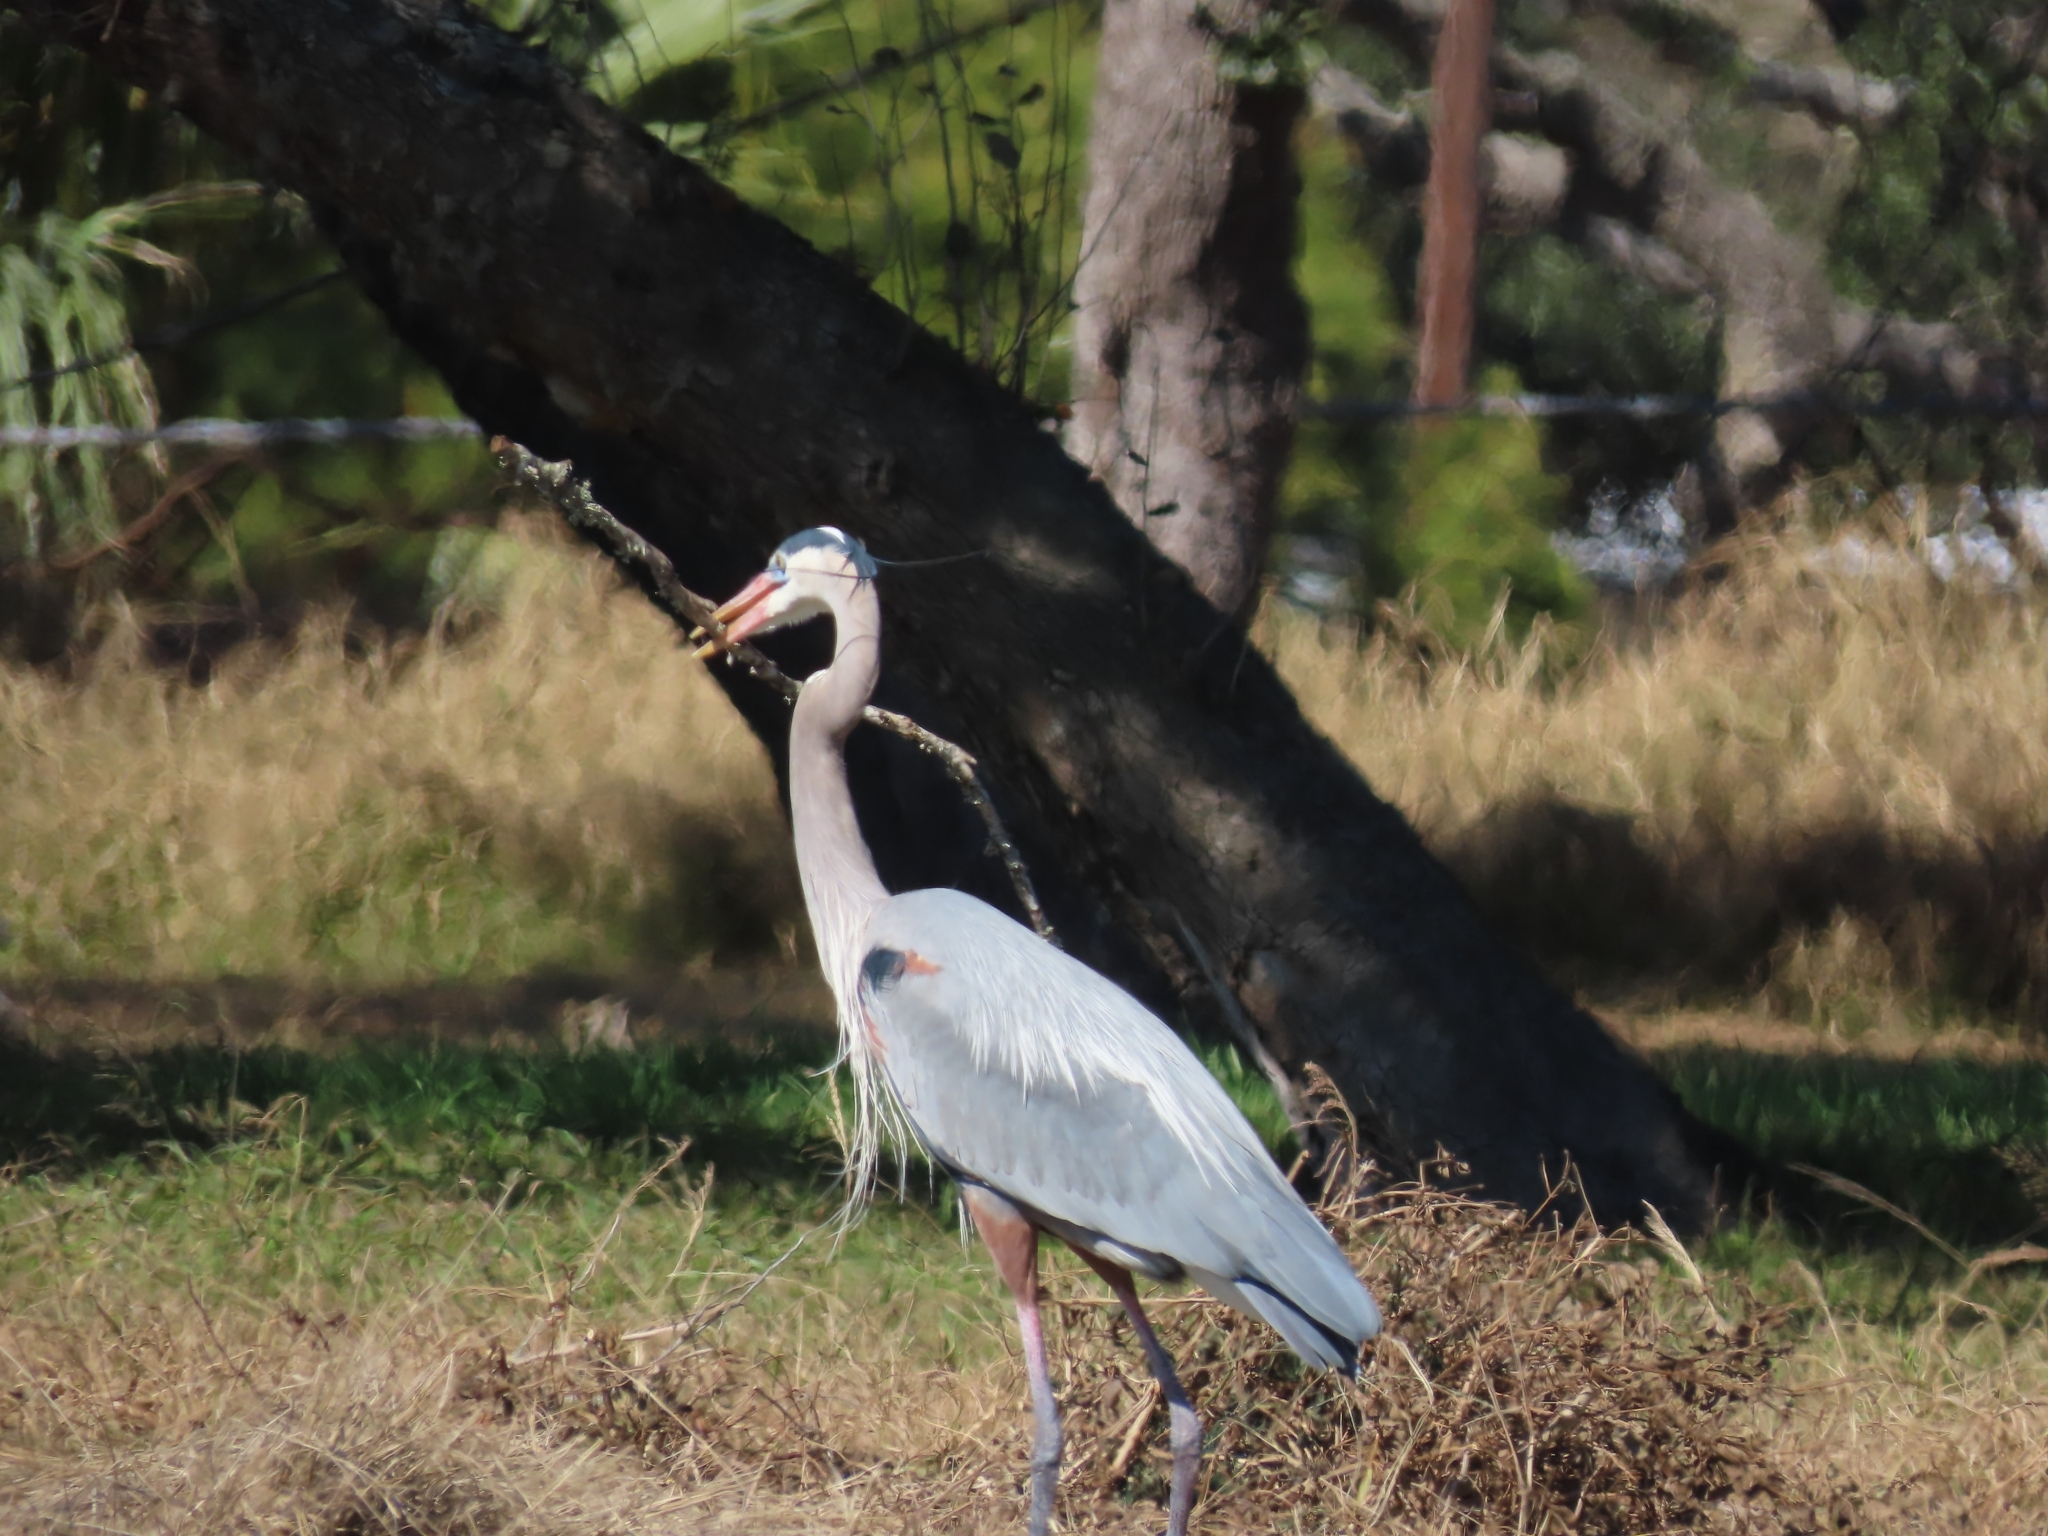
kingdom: Animalia
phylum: Chordata
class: Aves
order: Pelecaniformes
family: Ardeidae
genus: Ardea
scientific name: Ardea herodias
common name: Great blue heron
